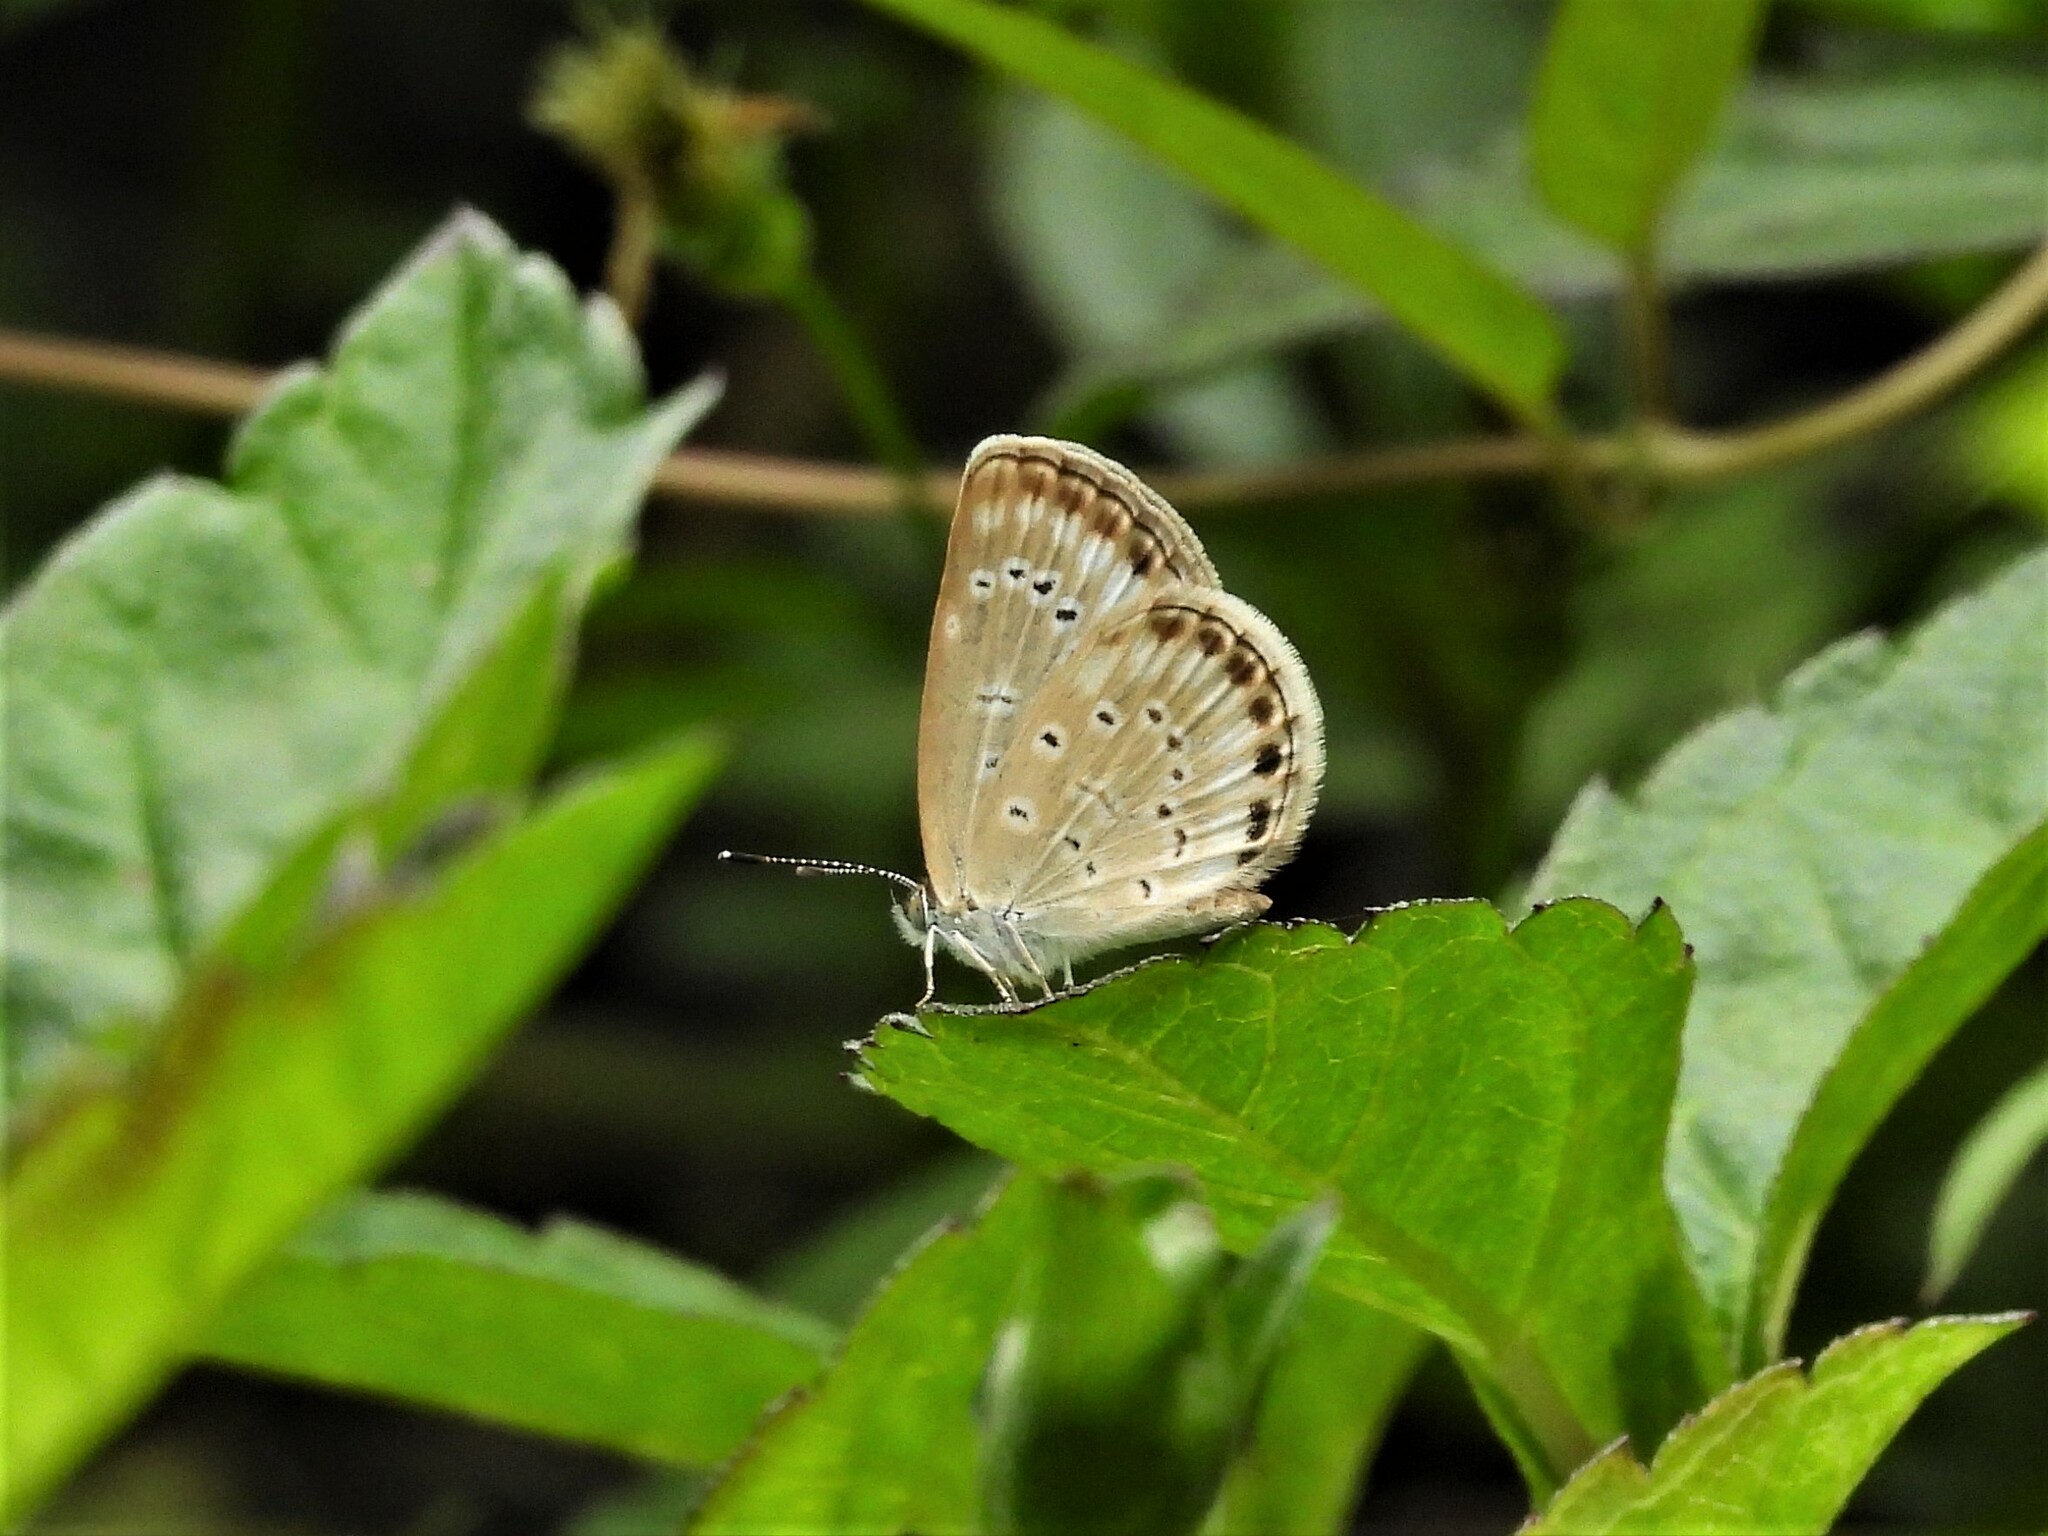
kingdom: Animalia
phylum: Arthropoda
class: Insecta
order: Lepidoptera
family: Lycaenidae
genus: Pseudozizeeria
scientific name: Pseudozizeeria maha
